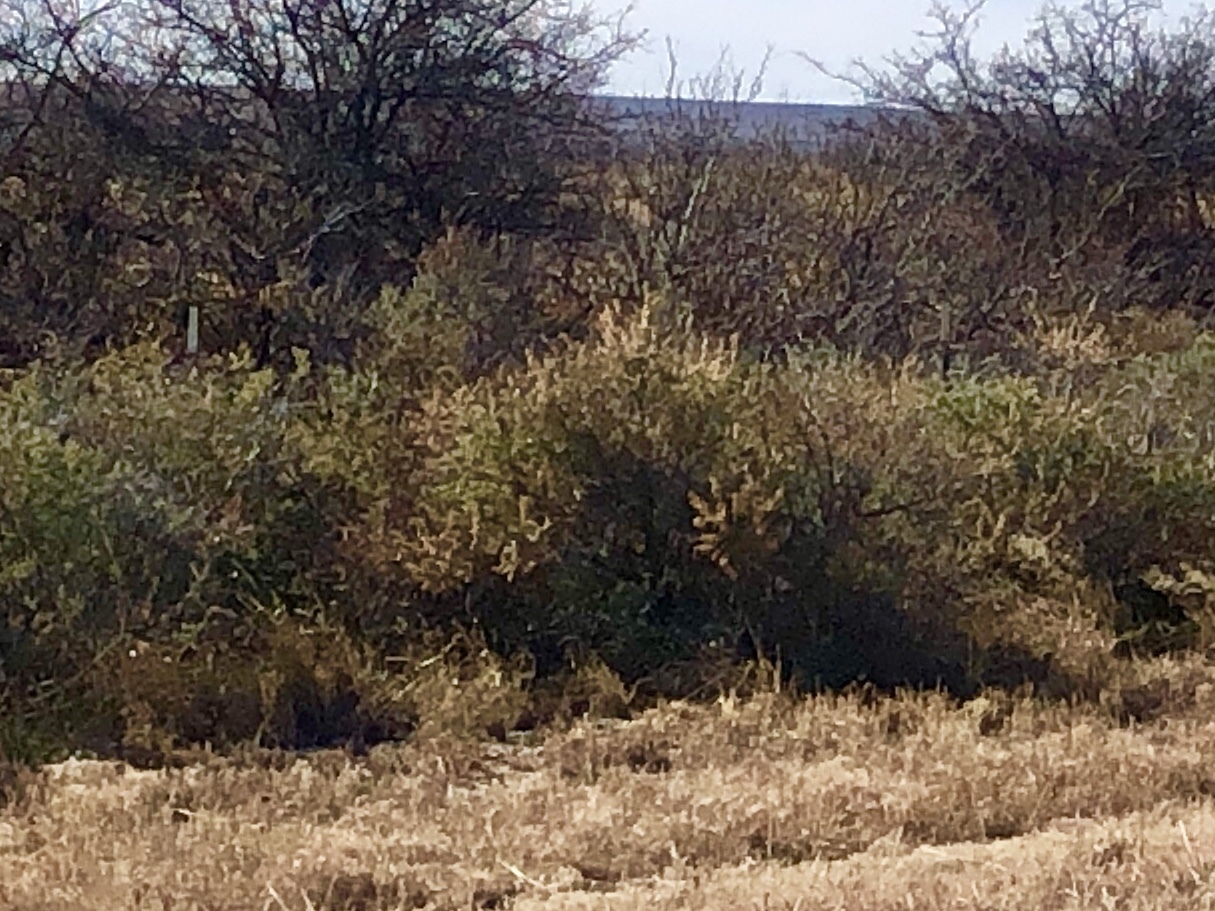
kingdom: Plantae
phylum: Tracheophyta
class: Magnoliopsida
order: Caryophyllales
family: Amaranthaceae
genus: Atriplex
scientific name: Atriplex canescens
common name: Four-wing saltbush
